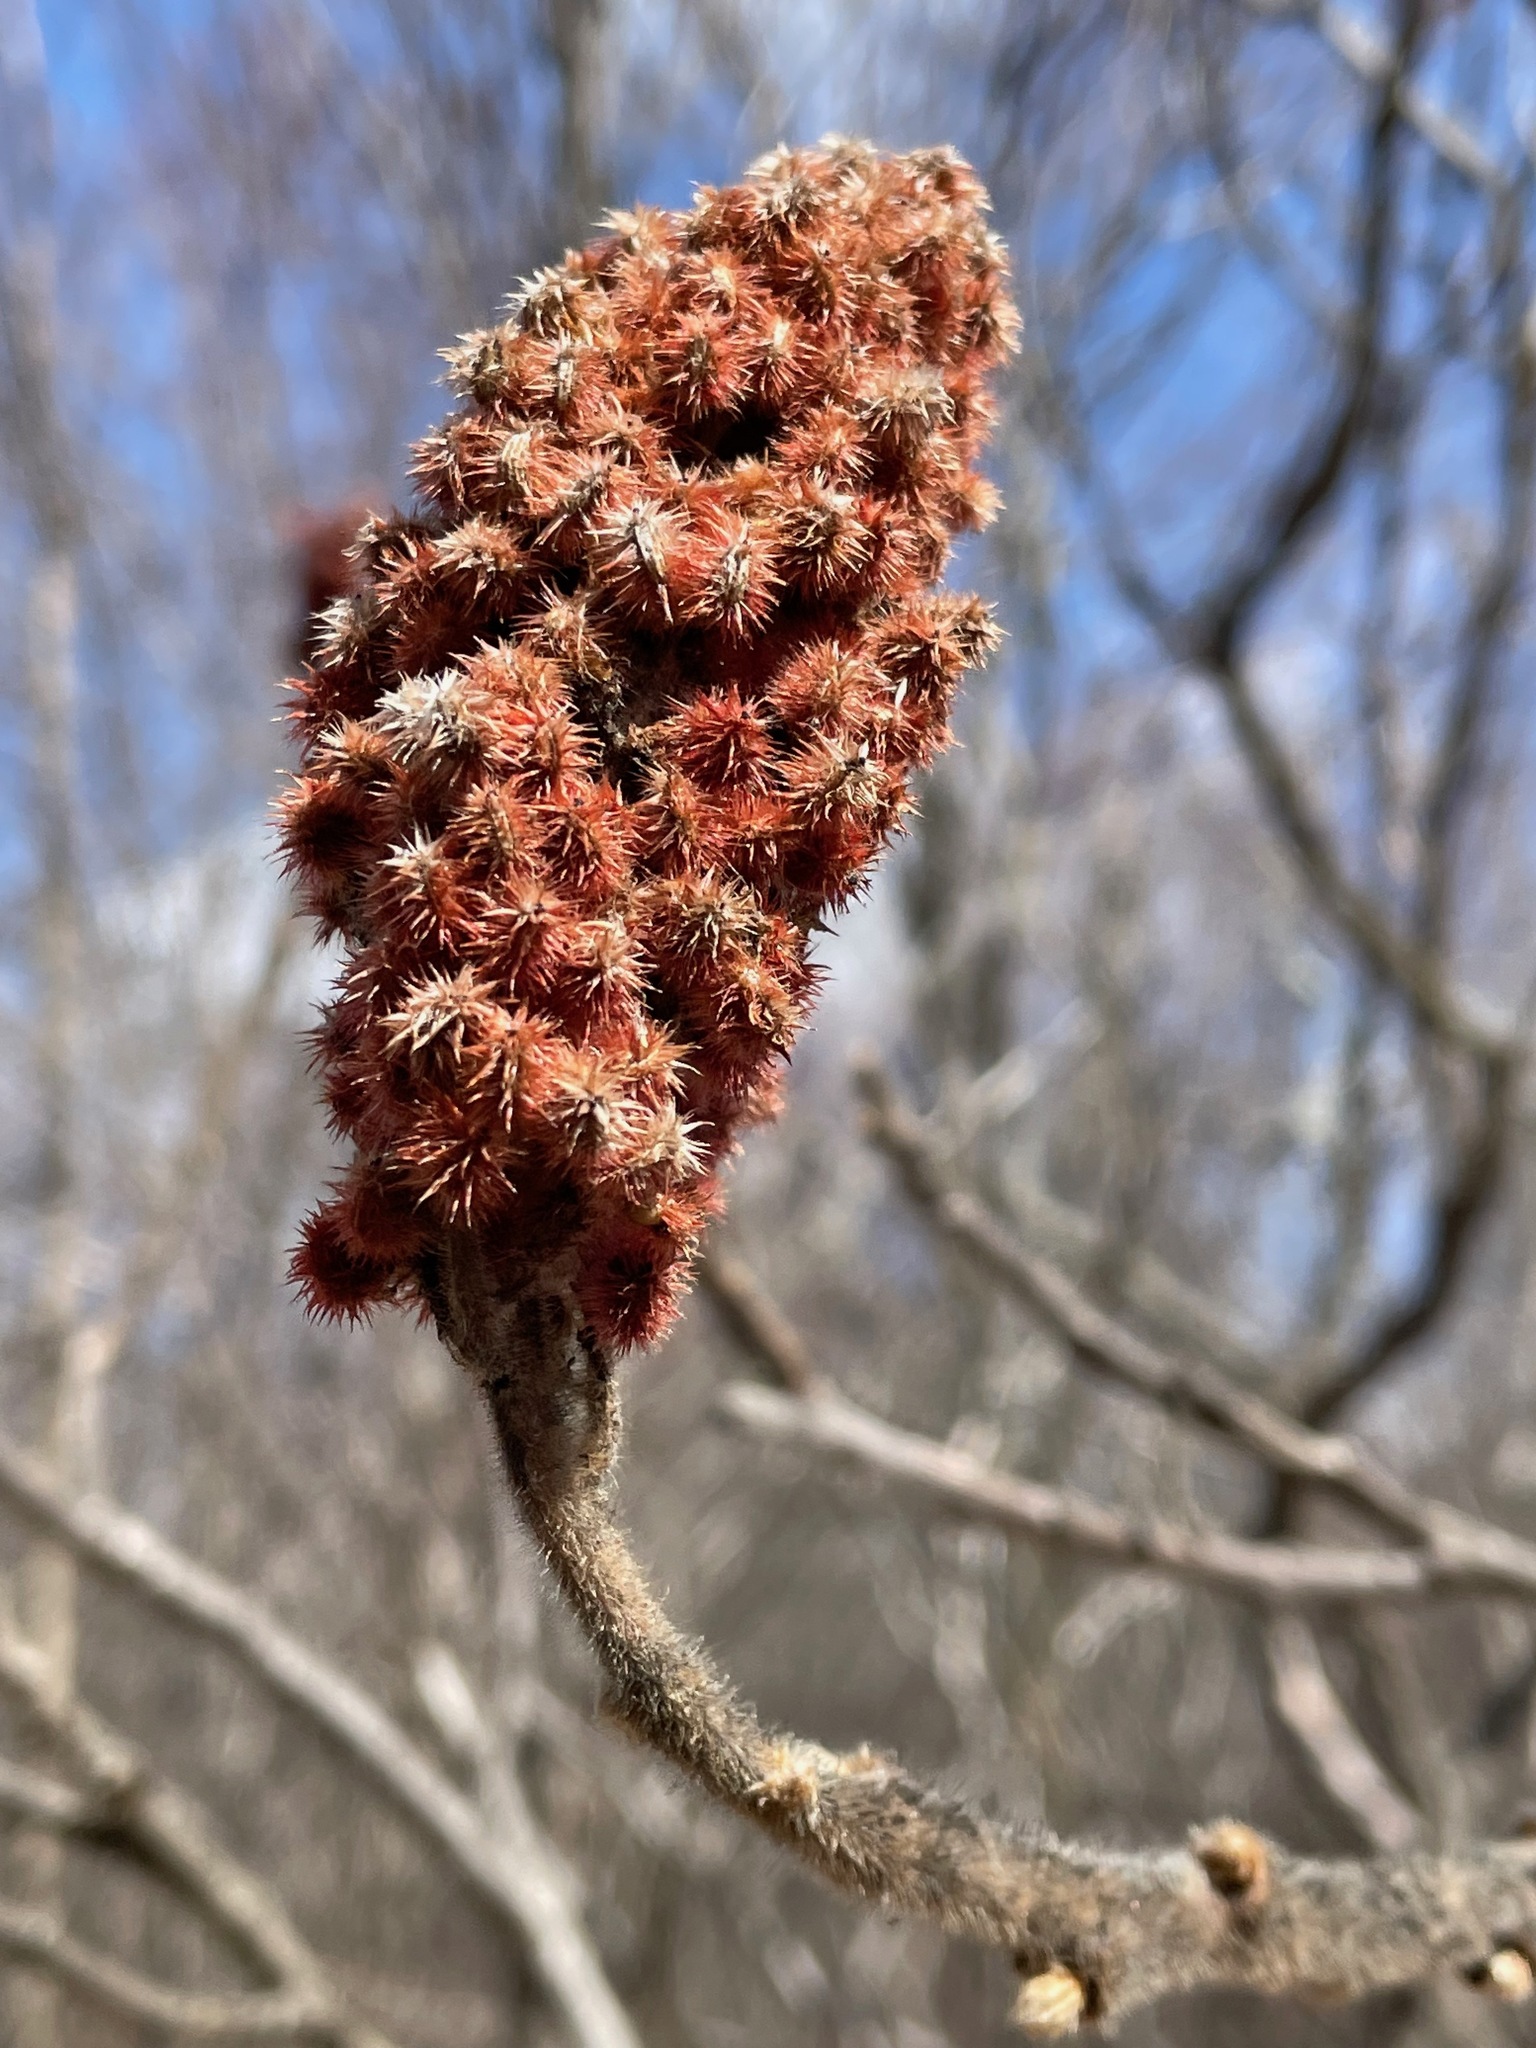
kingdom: Plantae
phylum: Tracheophyta
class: Magnoliopsida
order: Sapindales
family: Anacardiaceae
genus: Rhus
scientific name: Rhus typhina
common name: Staghorn sumac
